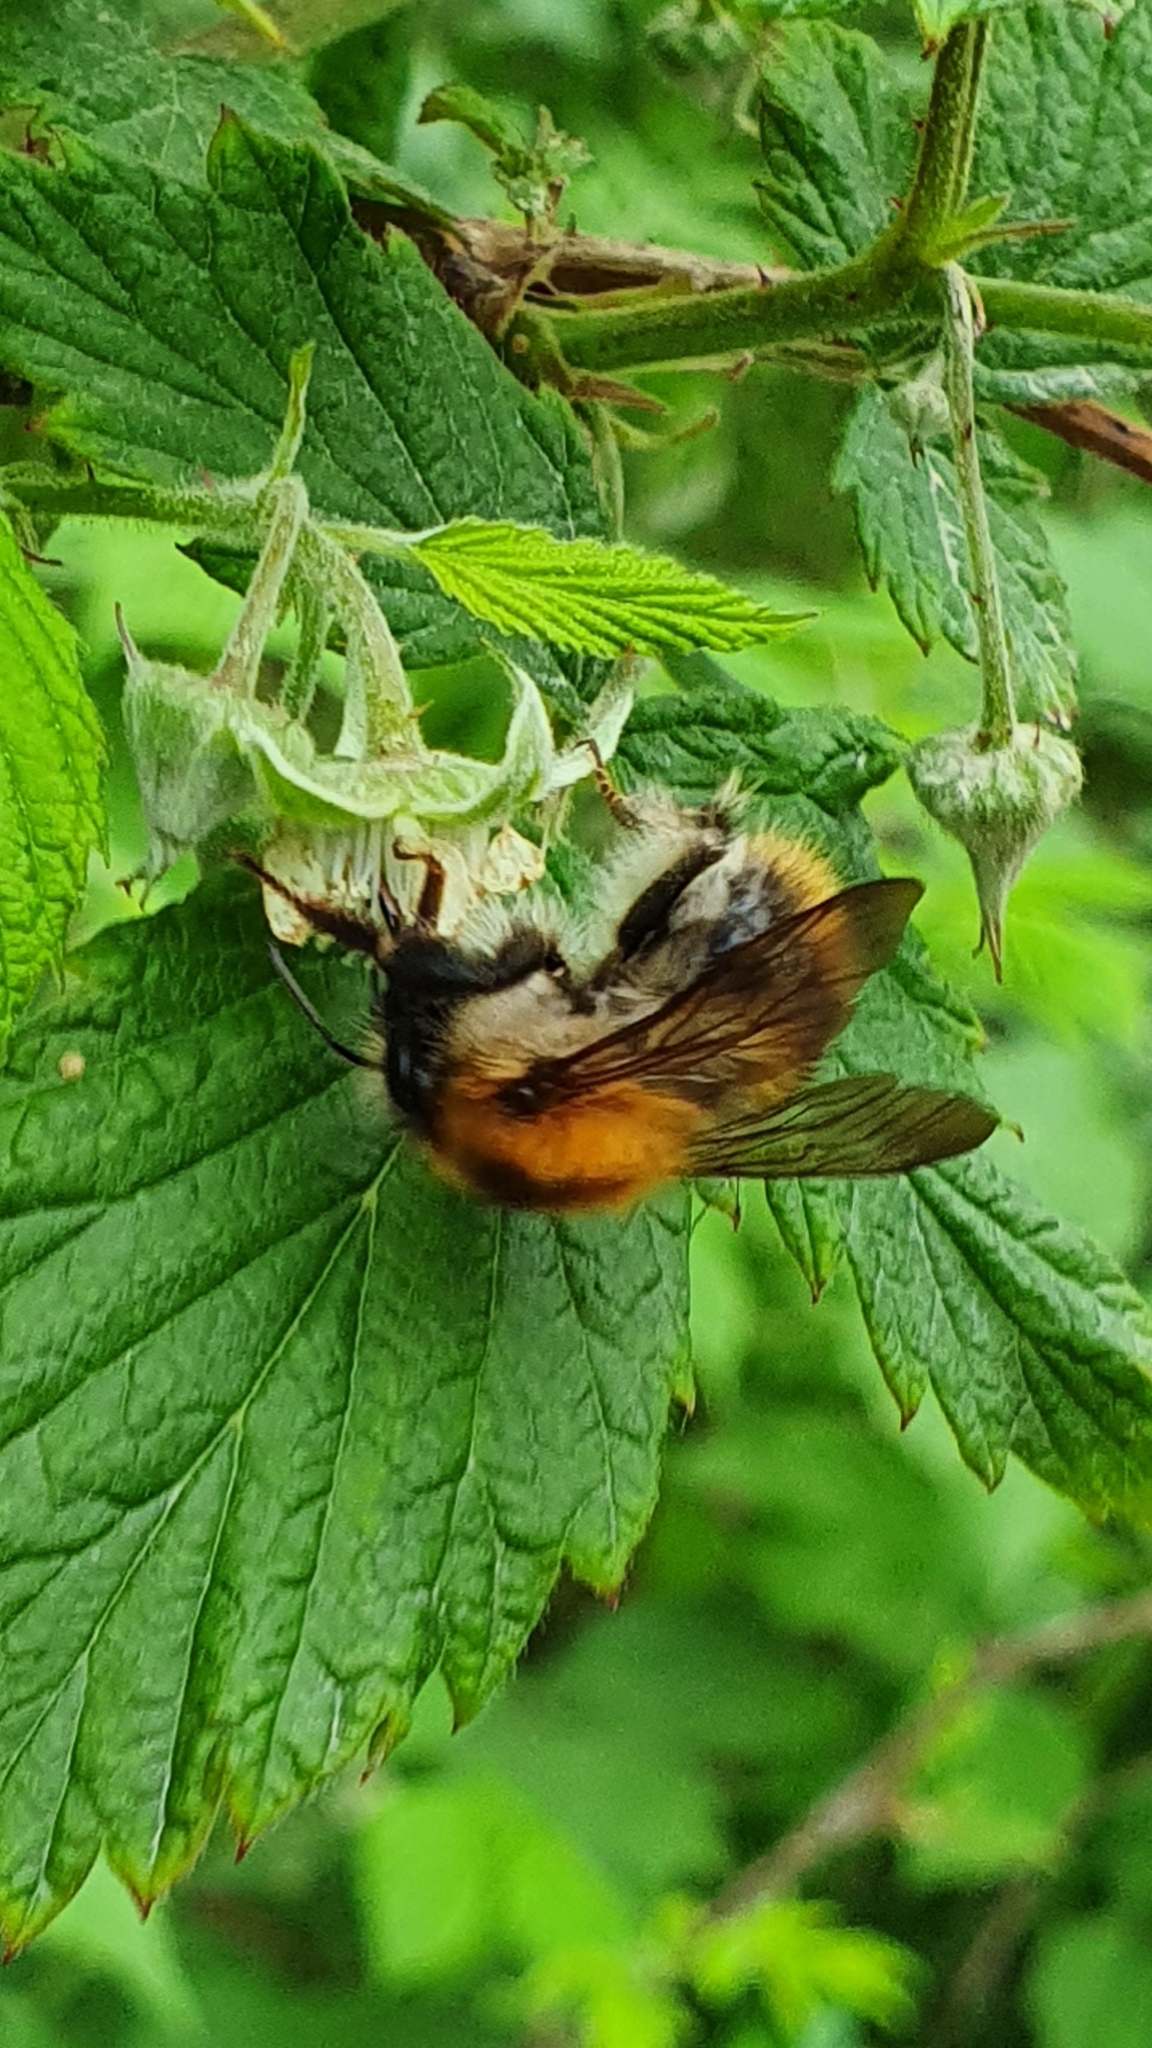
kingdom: Animalia
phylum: Arthropoda
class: Insecta
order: Hymenoptera
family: Apidae
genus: Bombus
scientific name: Bombus pascuorum
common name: Common carder bee
